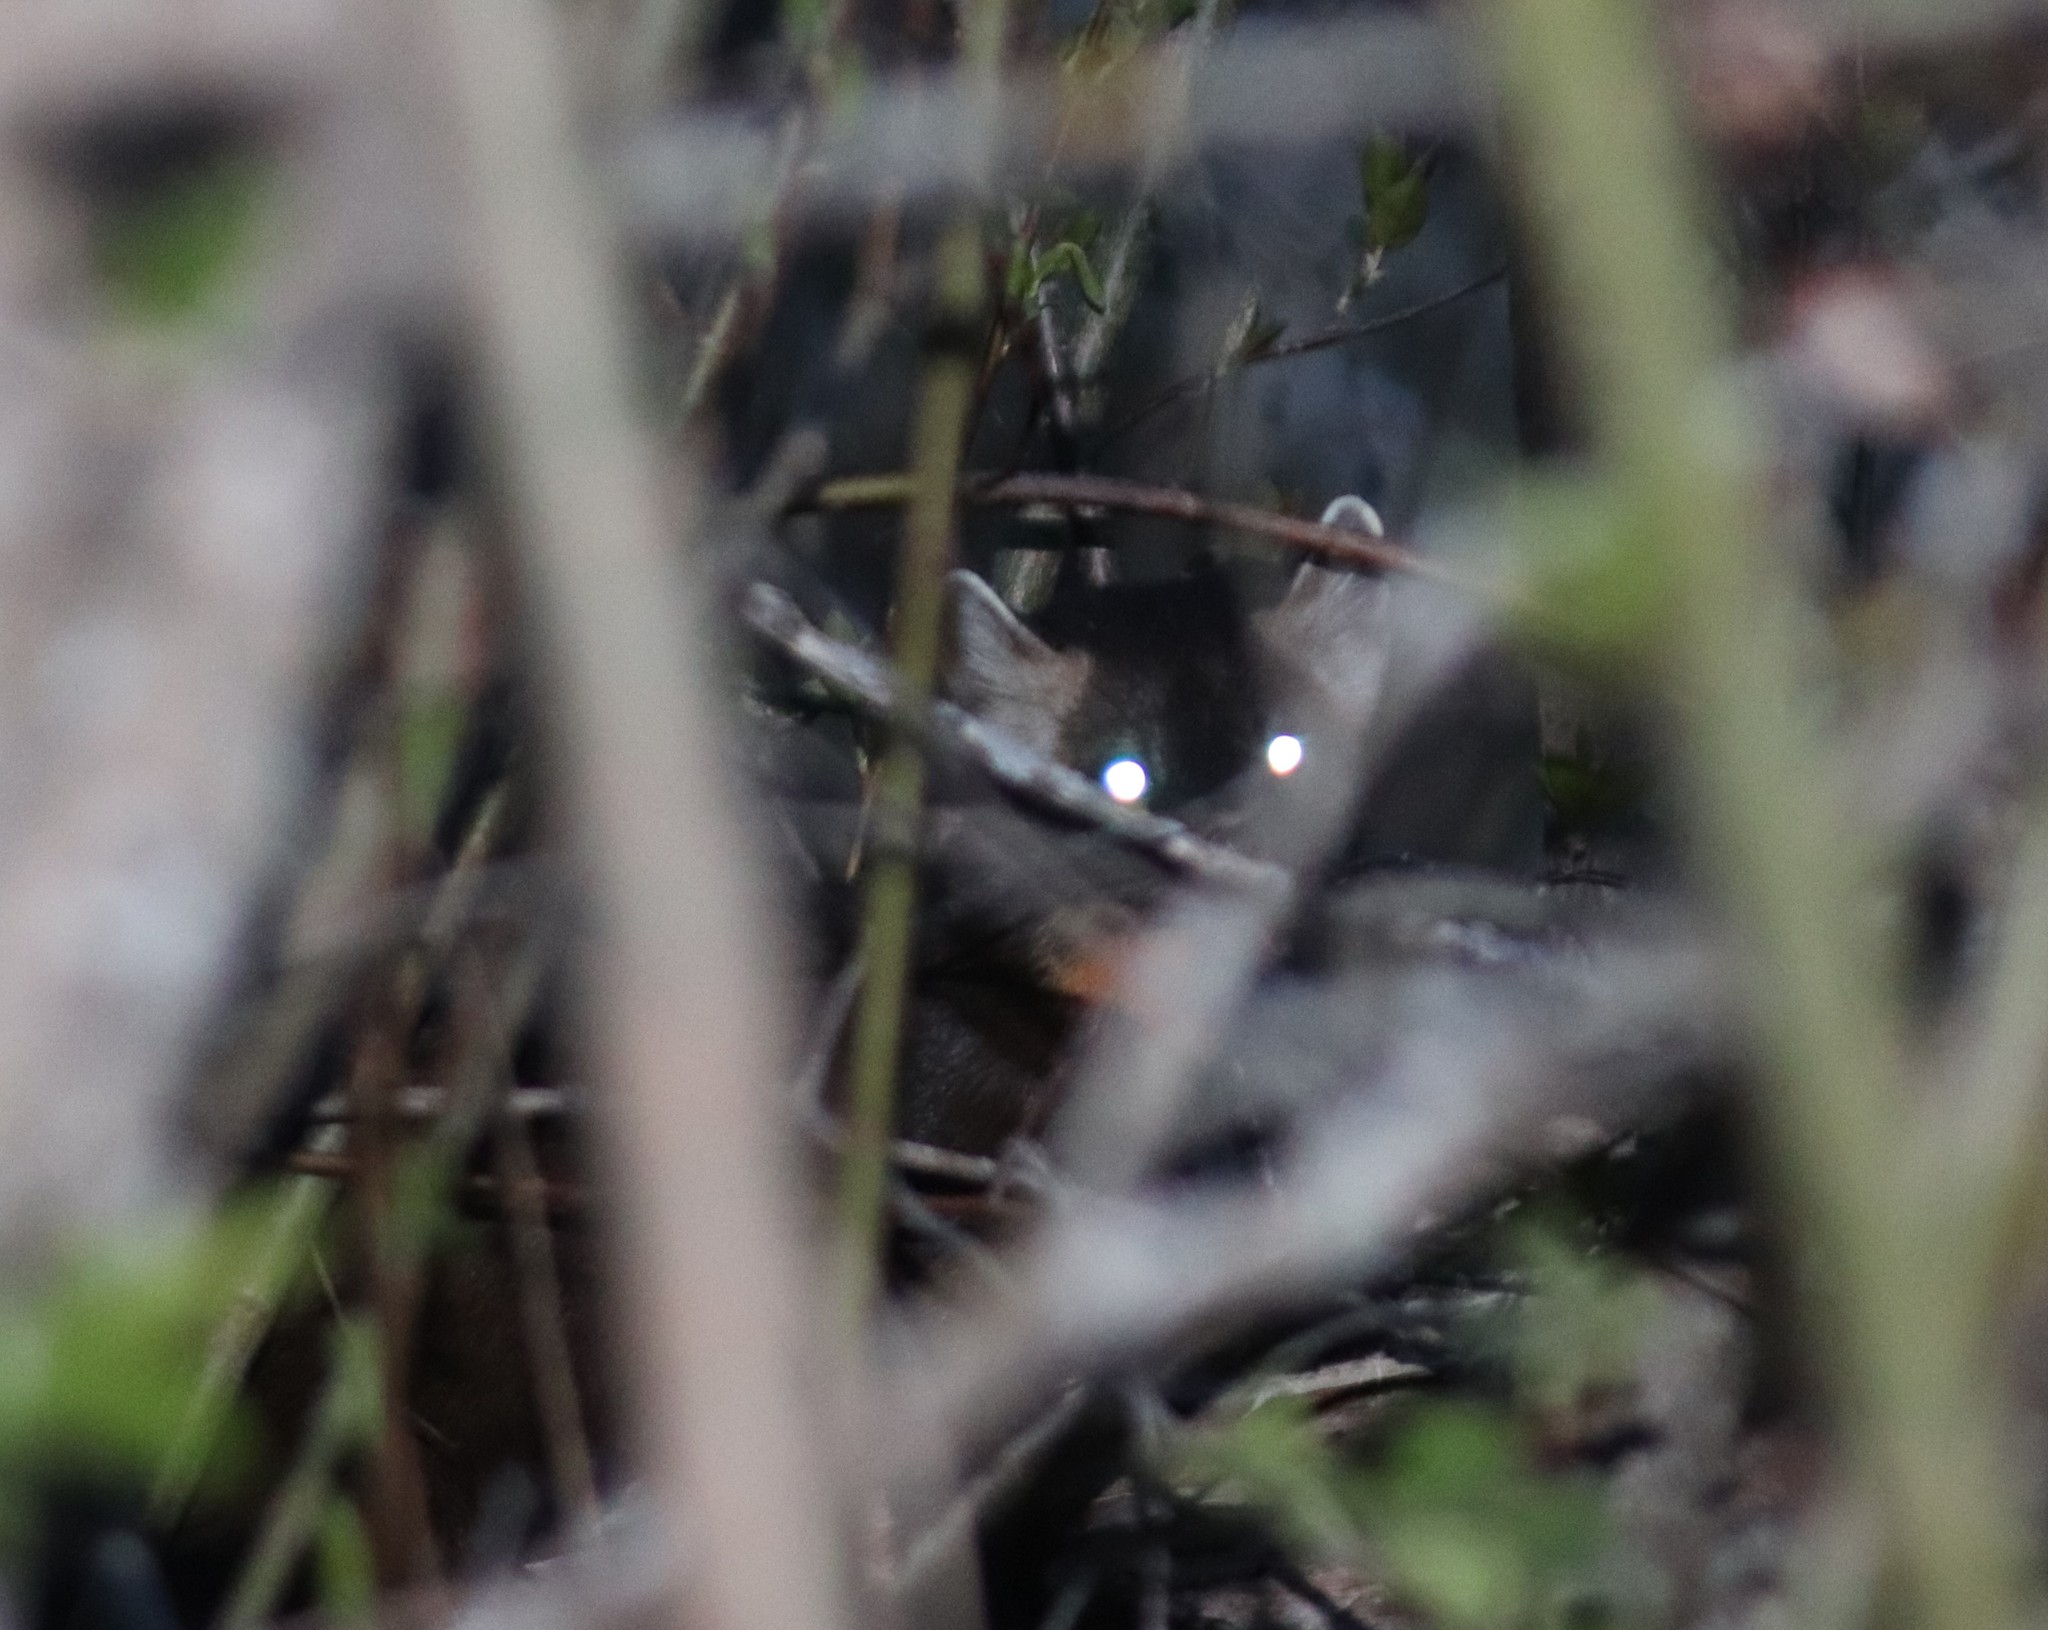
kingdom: Animalia
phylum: Chordata
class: Mammalia
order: Carnivora
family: Mustelidae
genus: Martes
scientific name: Martes americana
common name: American marten
